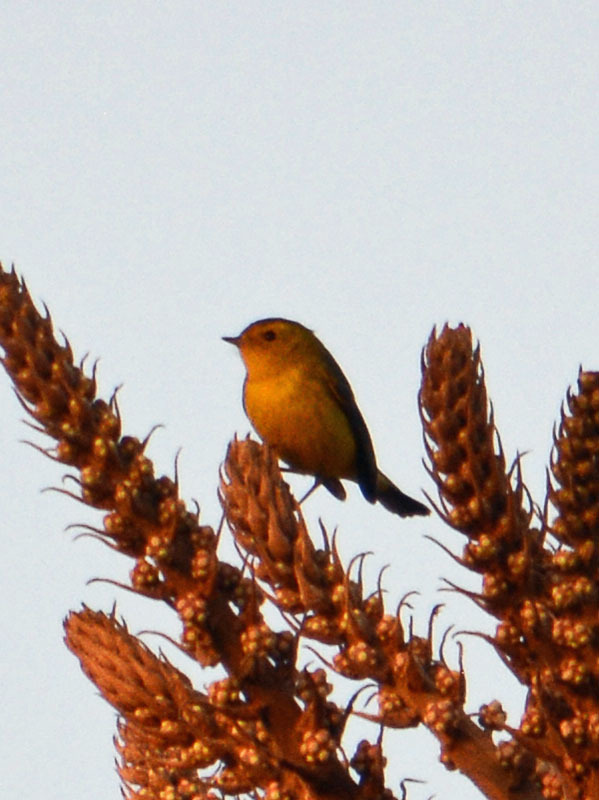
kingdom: Animalia
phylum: Chordata
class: Aves
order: Passeriformes
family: Parulidae
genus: Cardellina
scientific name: Cardellina pusilla
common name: Wilson's warbler
